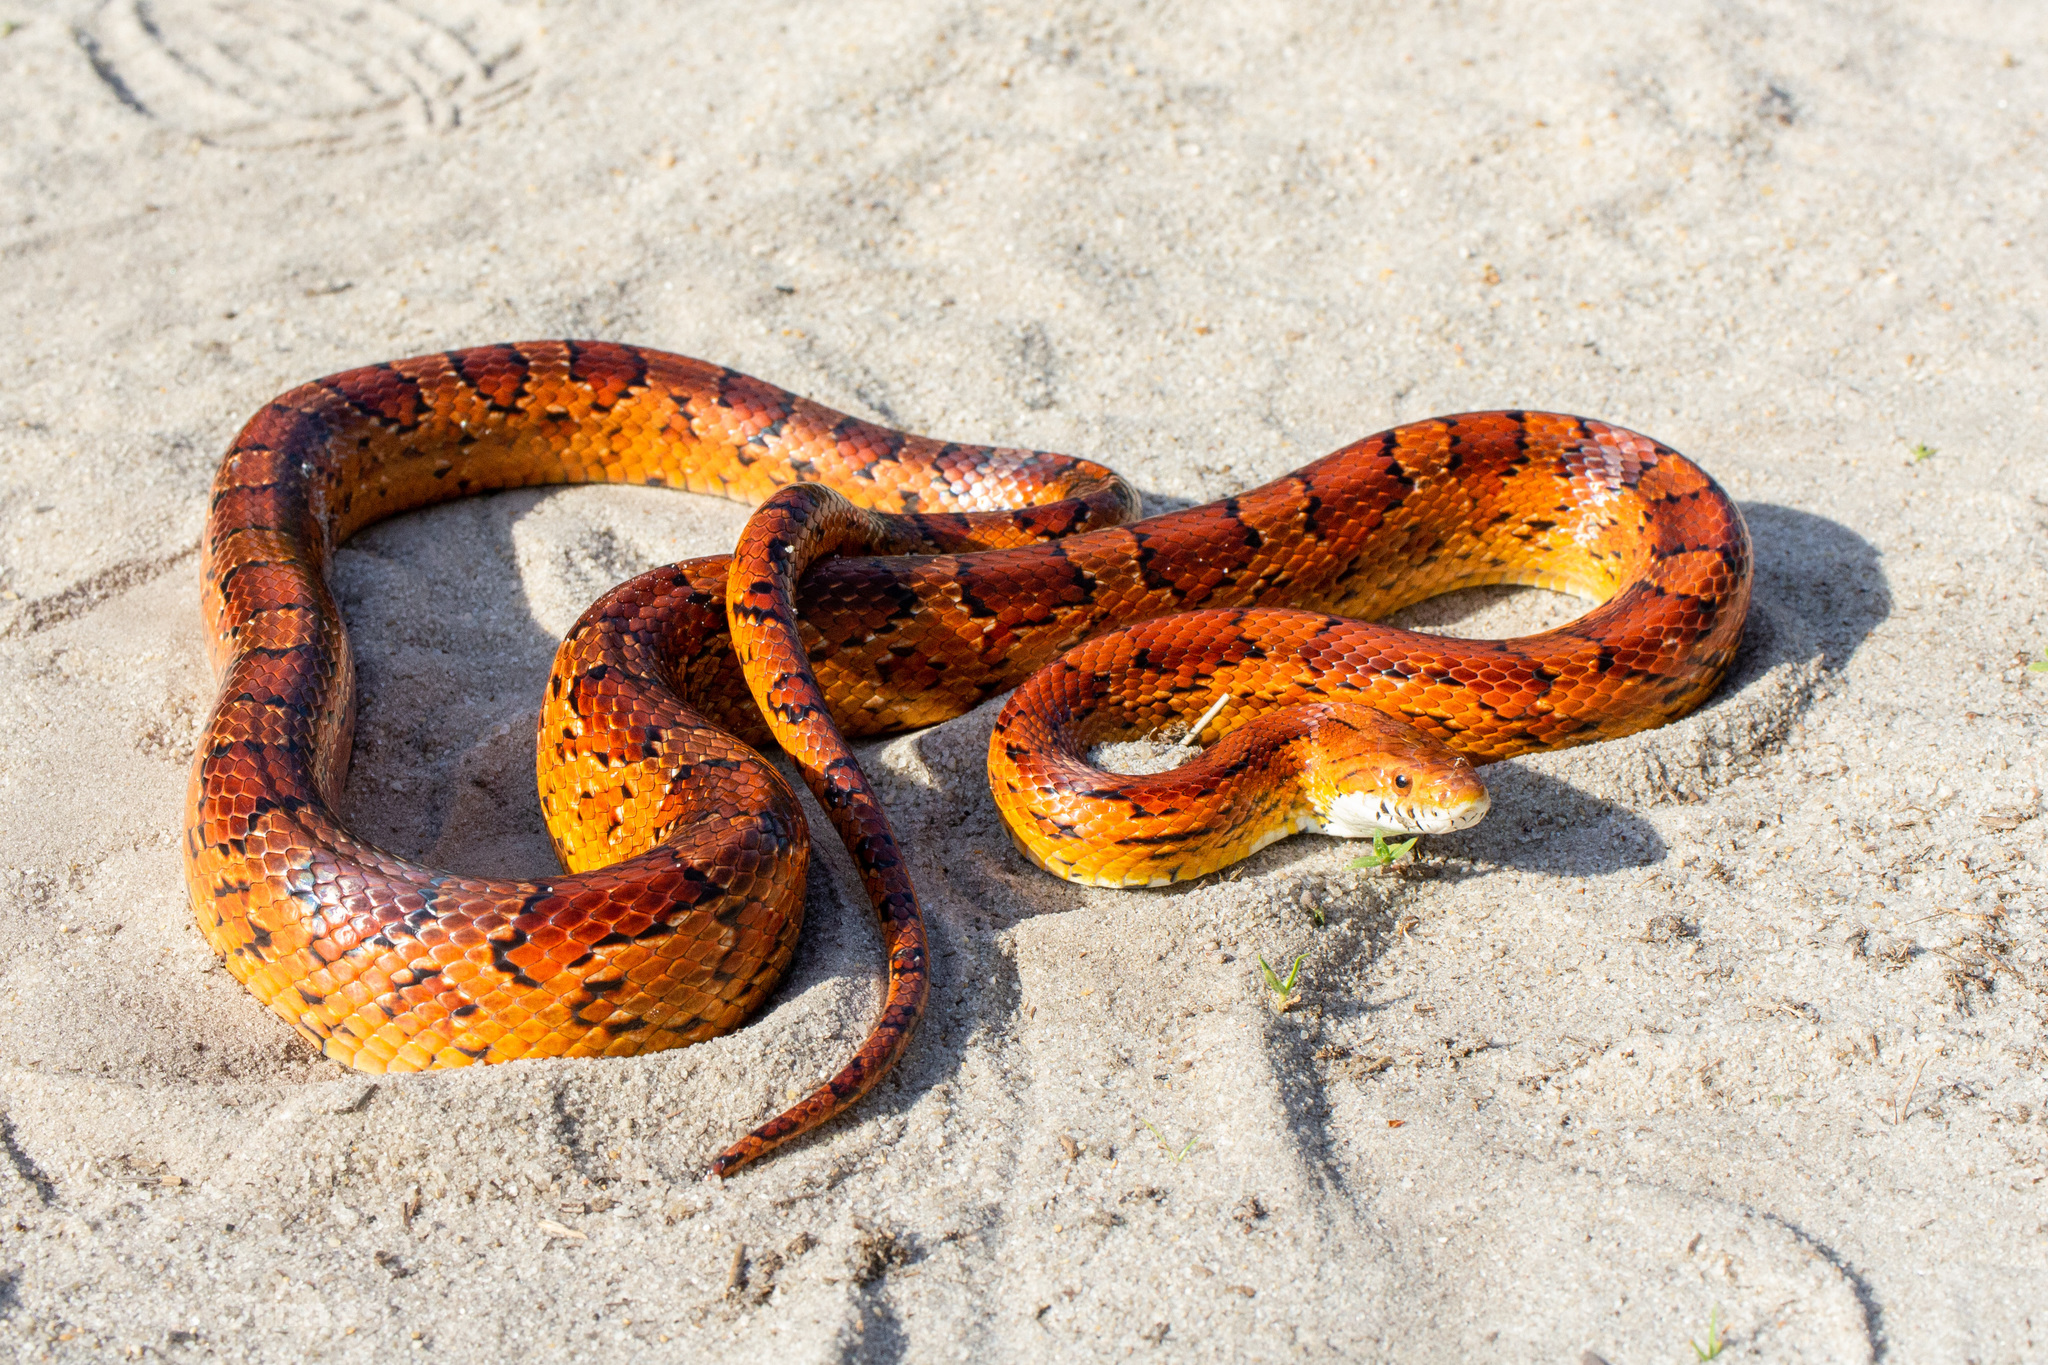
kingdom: Animalia
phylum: Chordata
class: Squamata
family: Colubridae
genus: Pantherophis
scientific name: Pantherophis guttatus
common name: Red cornsnake
